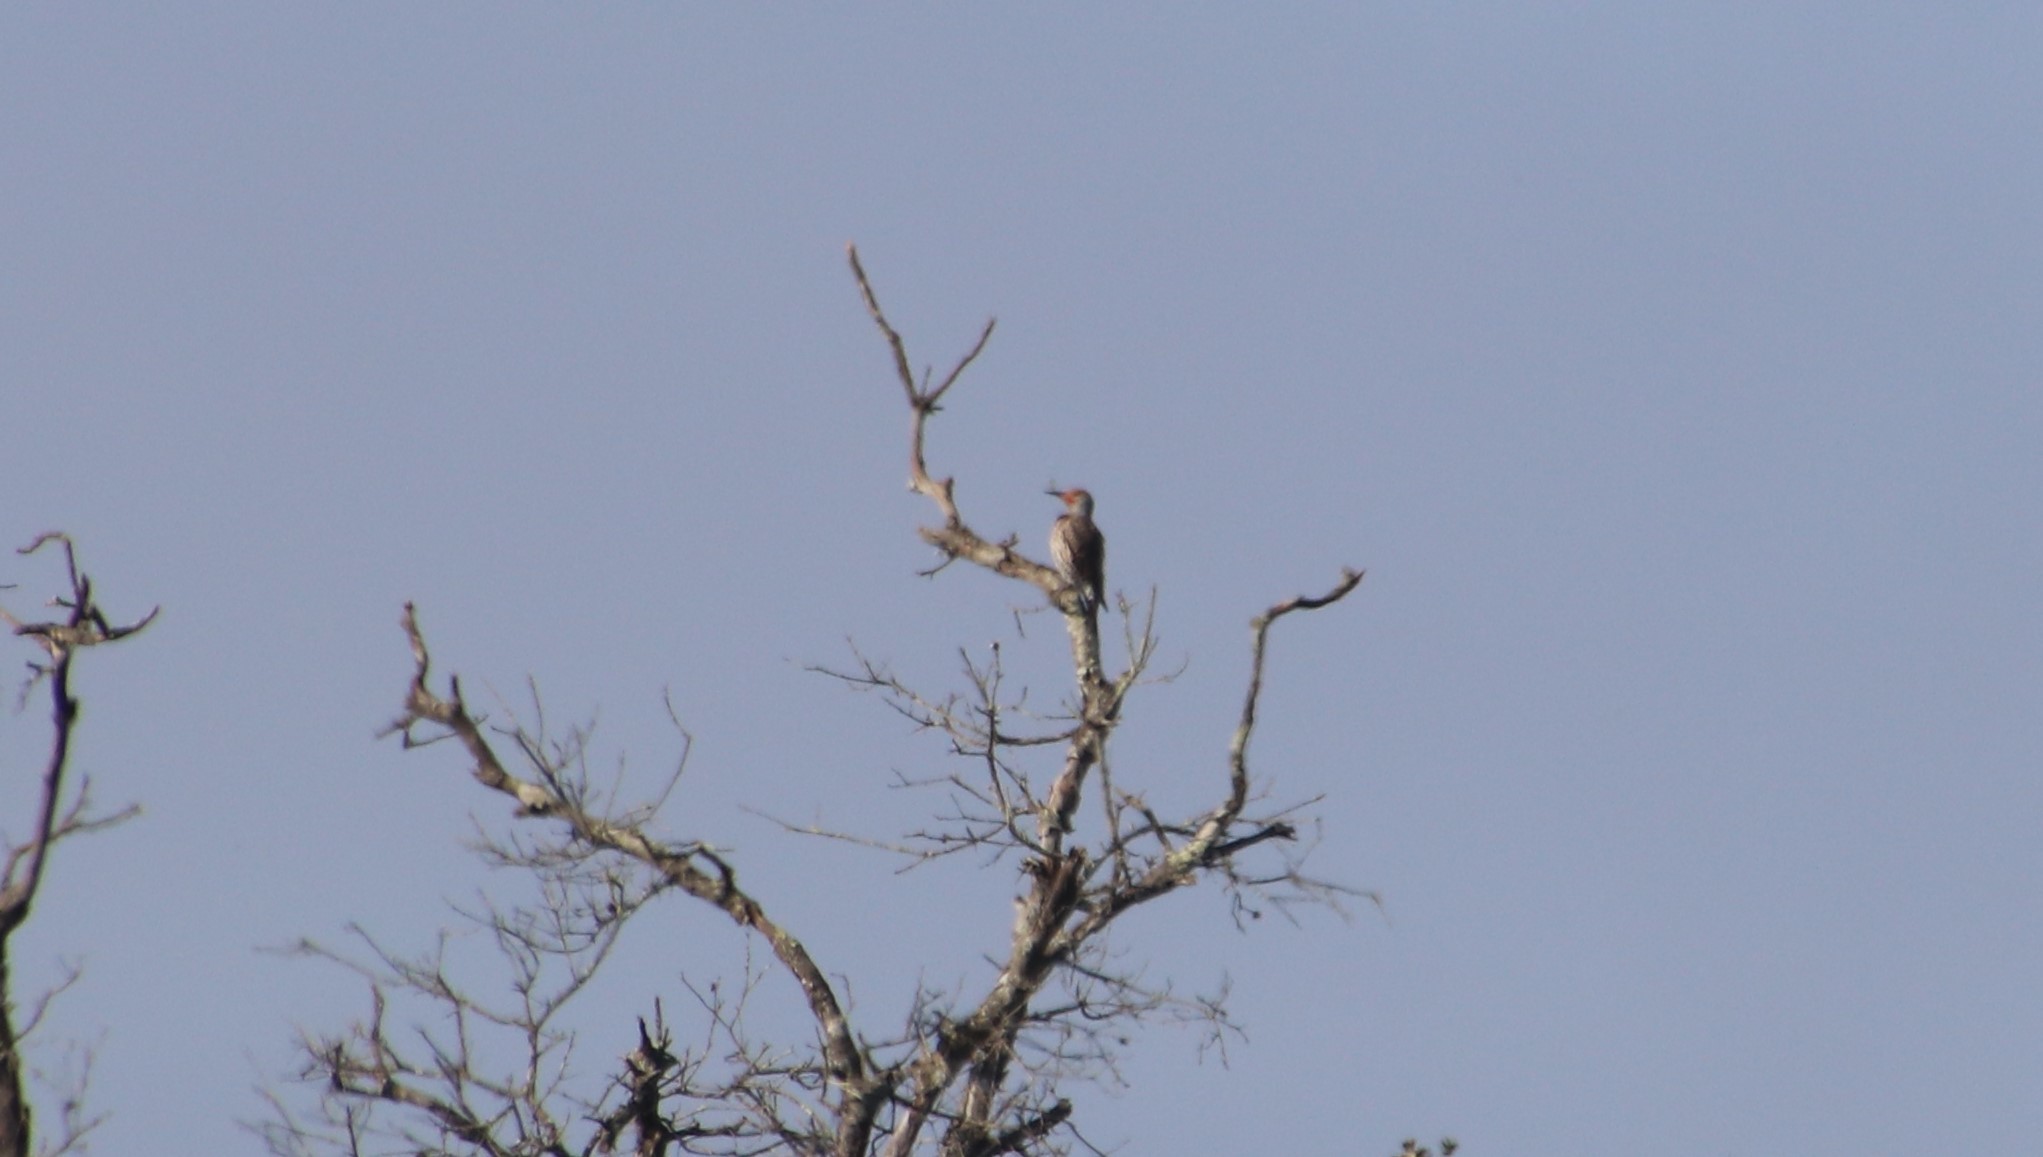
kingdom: Animalia
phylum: Chordata
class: Aves
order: Piciformes
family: Picidae
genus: Colaptes
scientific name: Colaptes auratus
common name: Northern flicker
